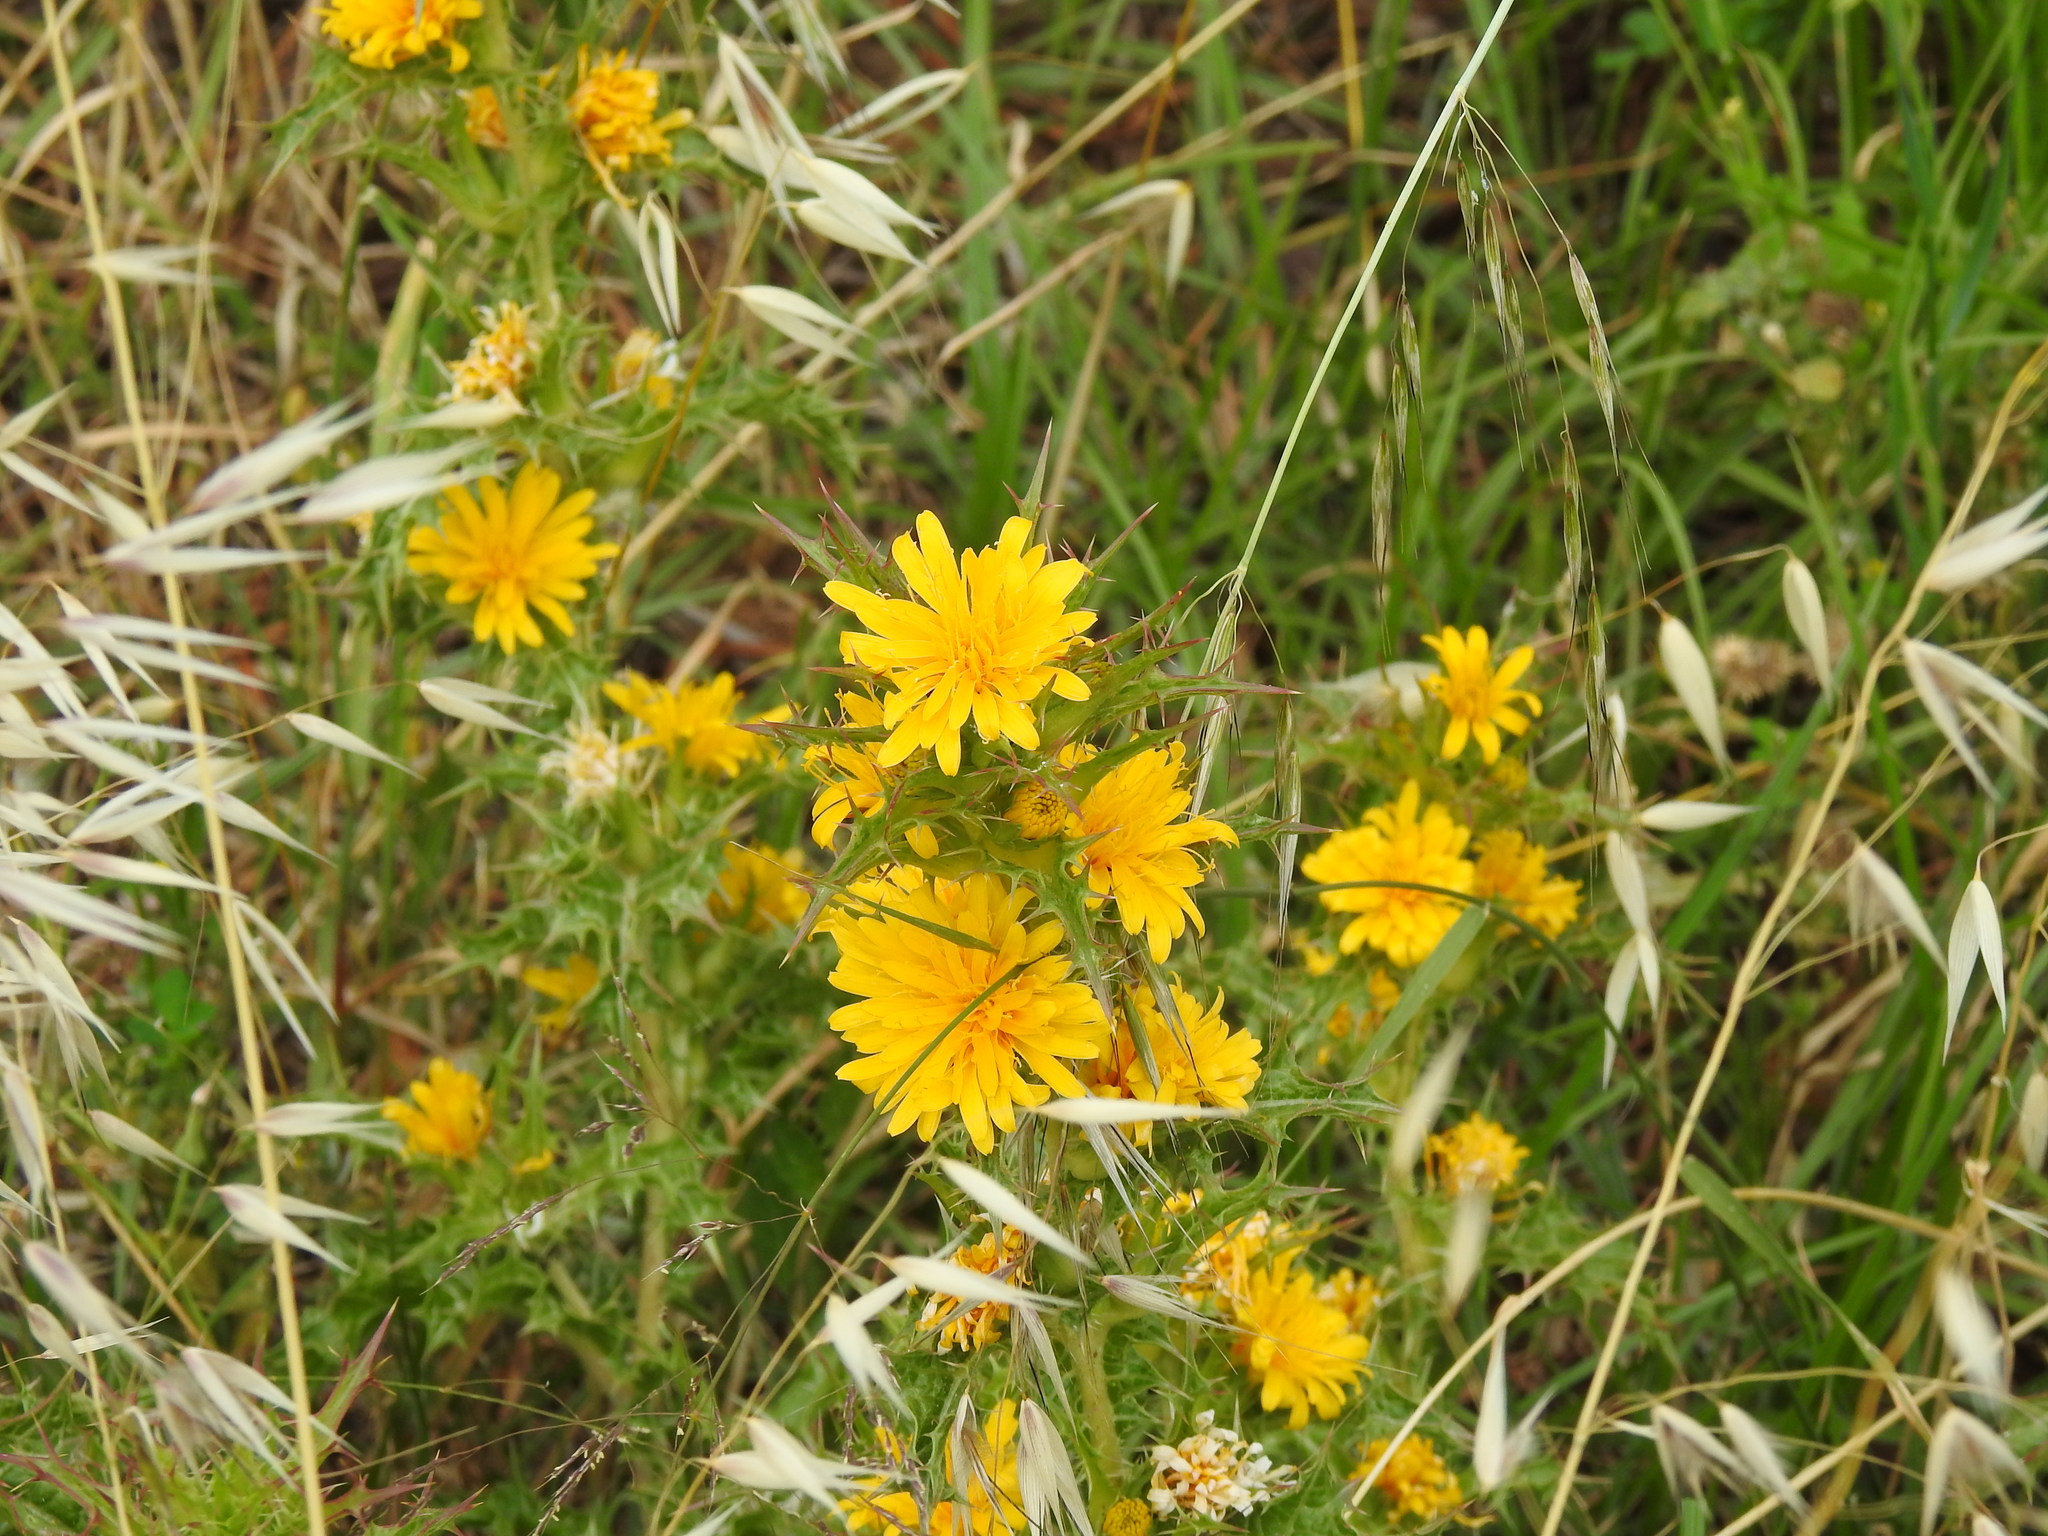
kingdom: Plantae
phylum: Tracheophyta
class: Magnoliopsida
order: Asterales
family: Asteraceae
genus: Scolymus
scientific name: Scolymus hispanicus
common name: Golden thistle
